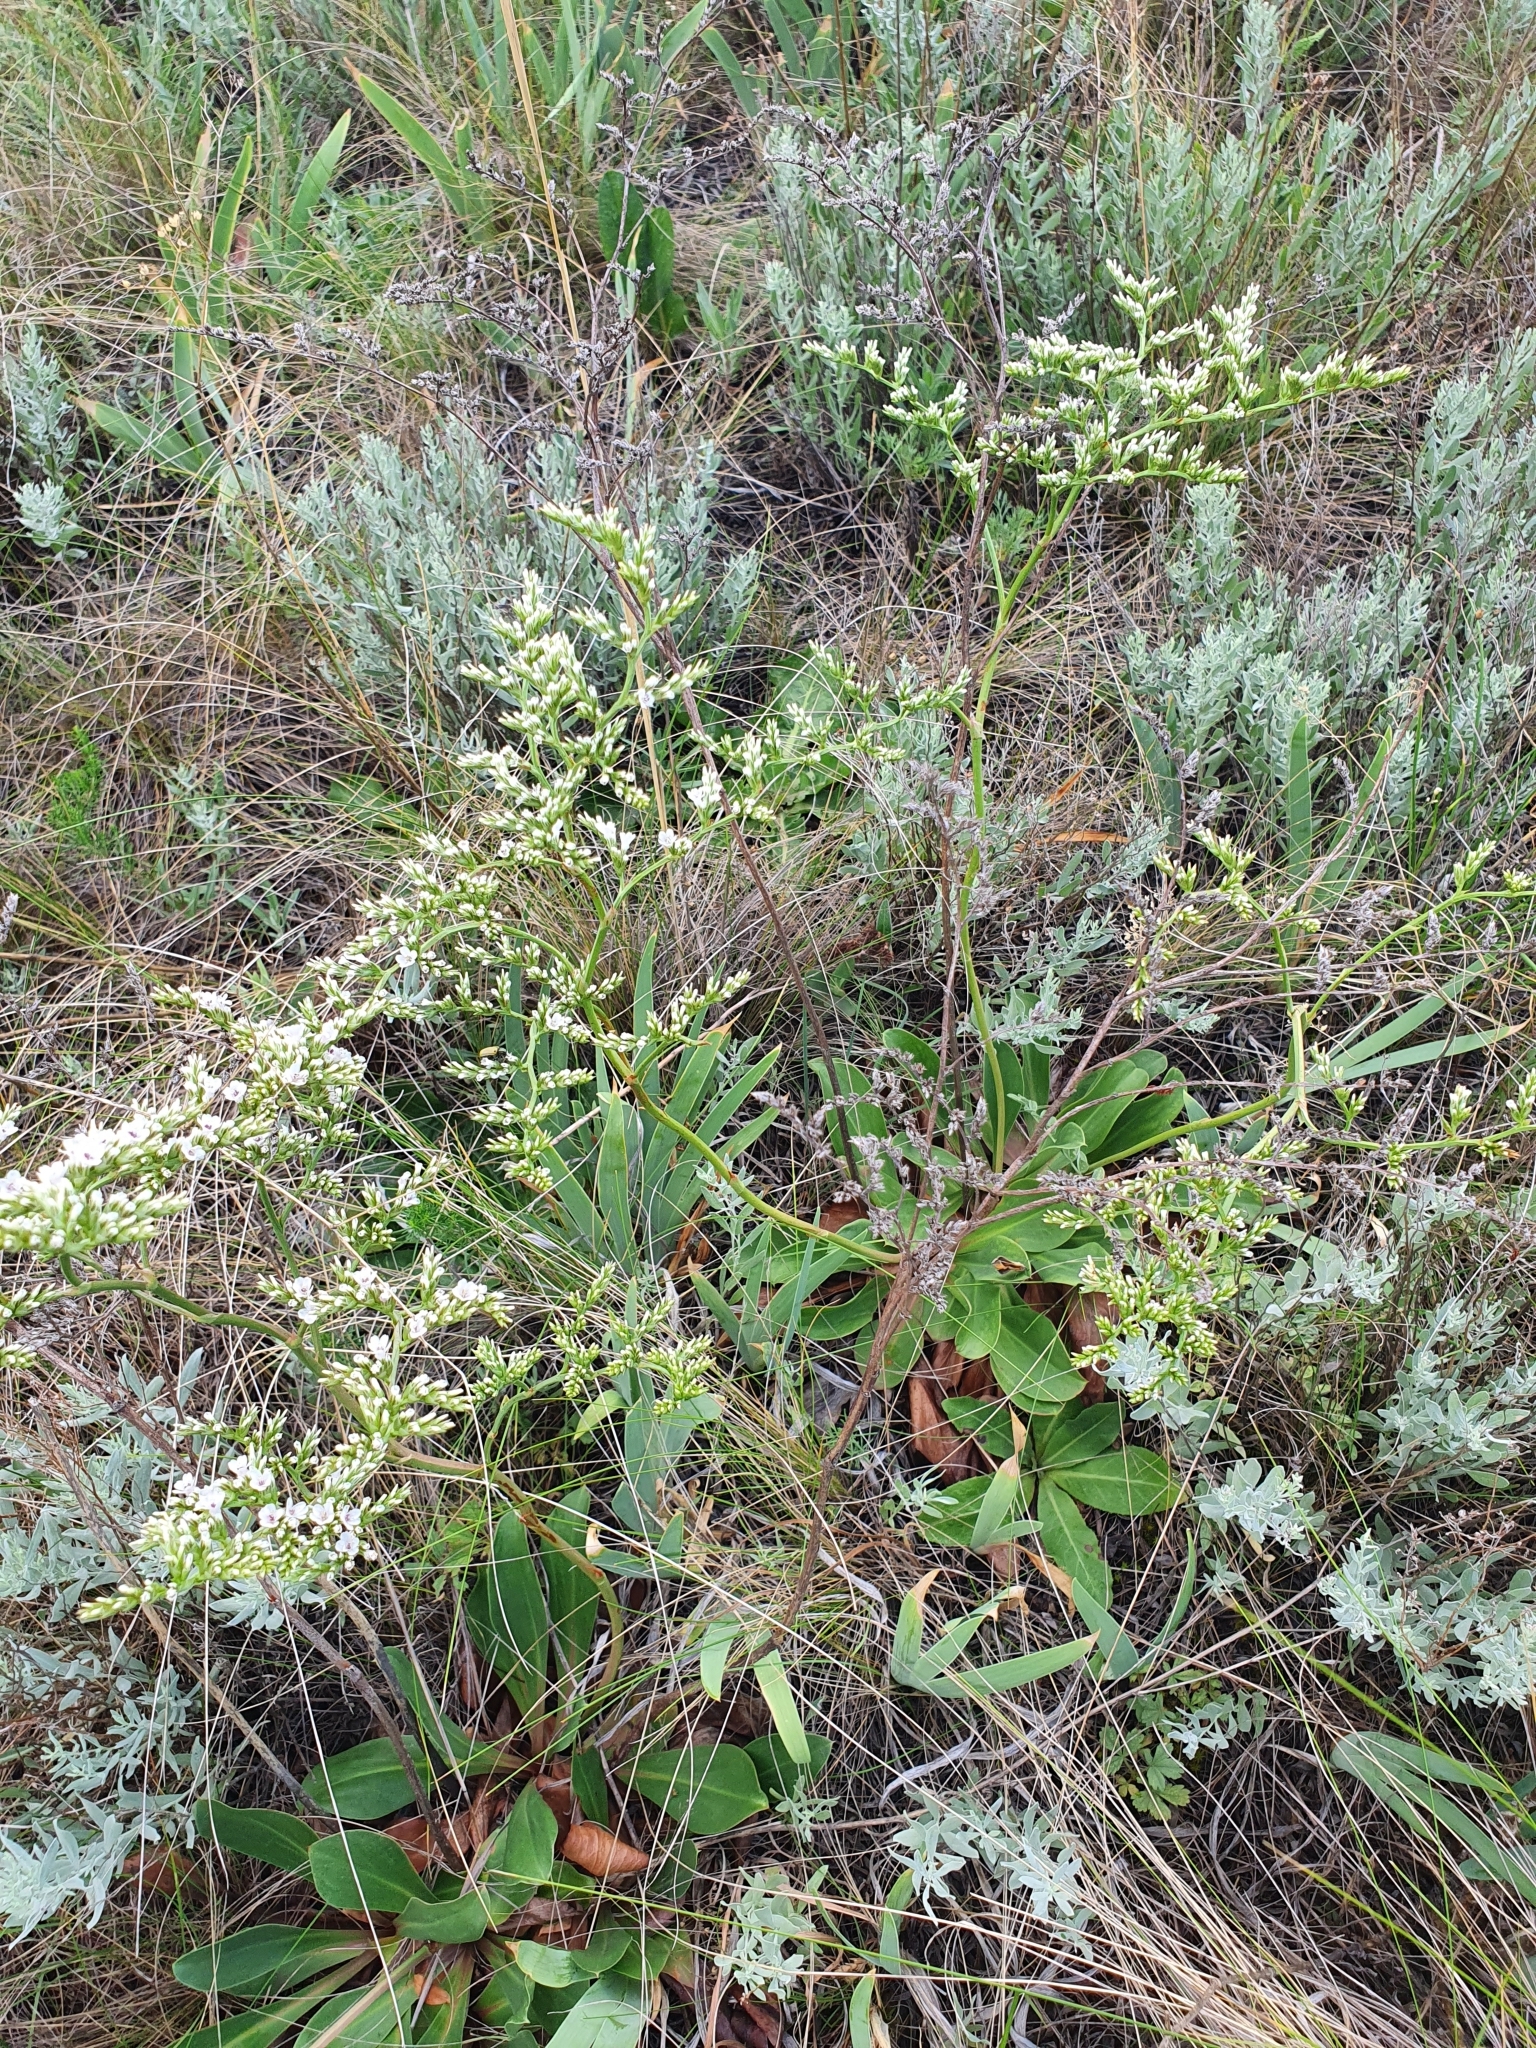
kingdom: Plantae
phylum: Tracheophyta
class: Magnoliopsida
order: Caryophyllales
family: Plumbaginaceae
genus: Goniolimon
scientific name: Goniolimon elatum
